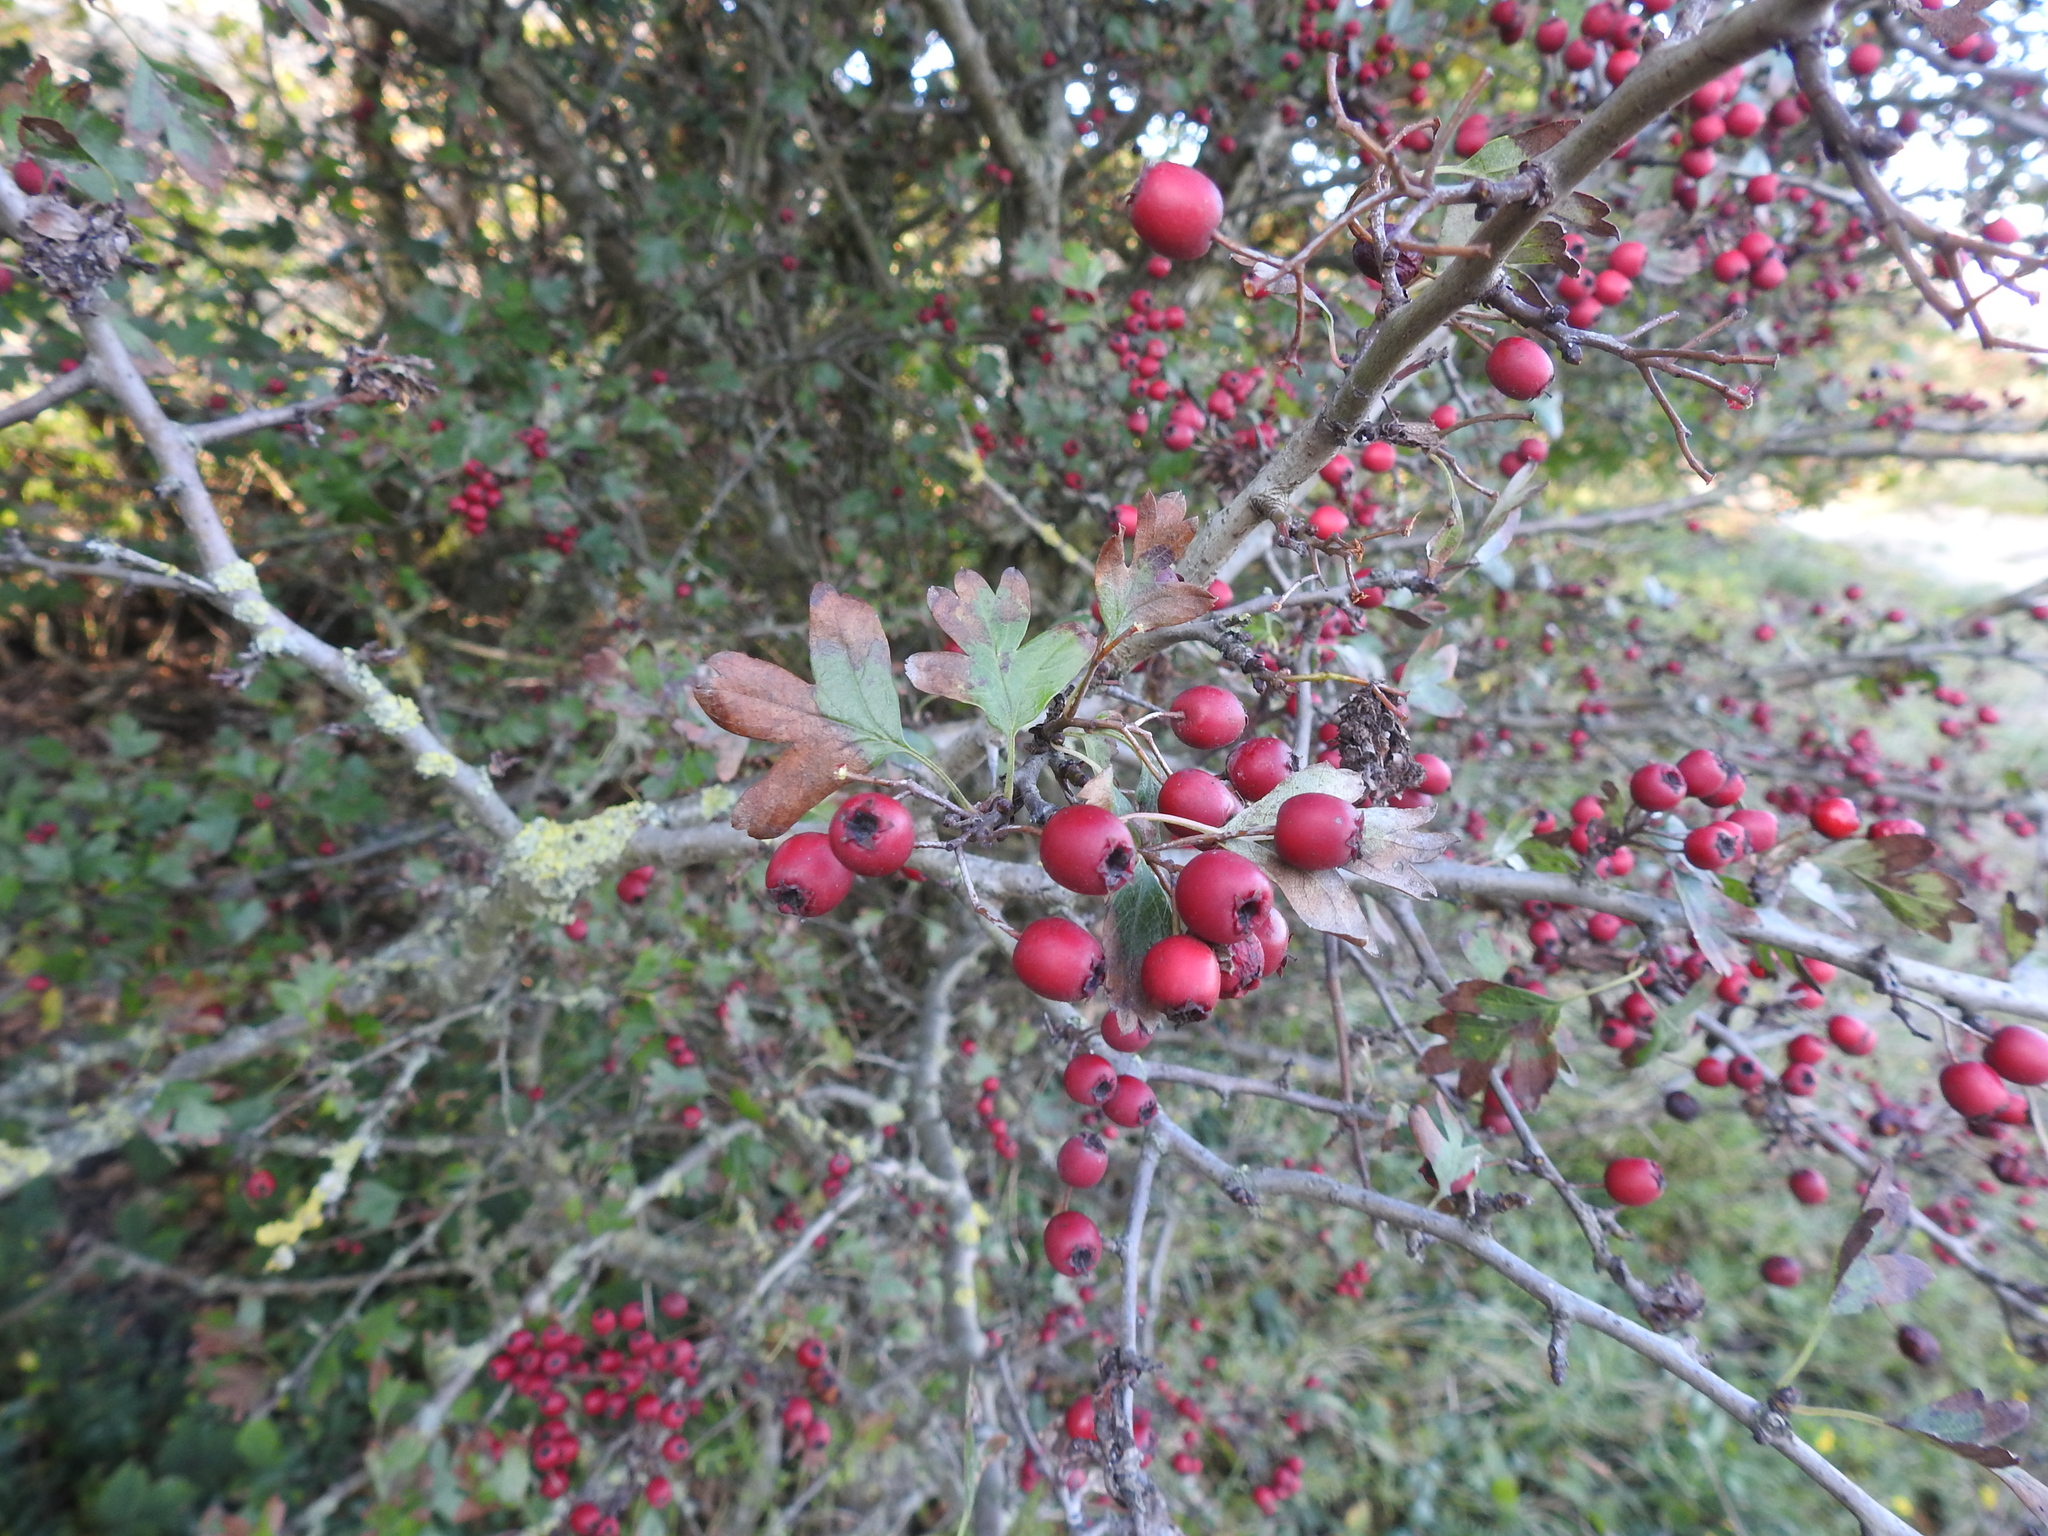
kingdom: Plantae
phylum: Tracheophyta
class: Magnoliopsida
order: Rosales
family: Rosaceae
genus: Crataegus
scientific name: Crataegus monogyna
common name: Hawthorn
